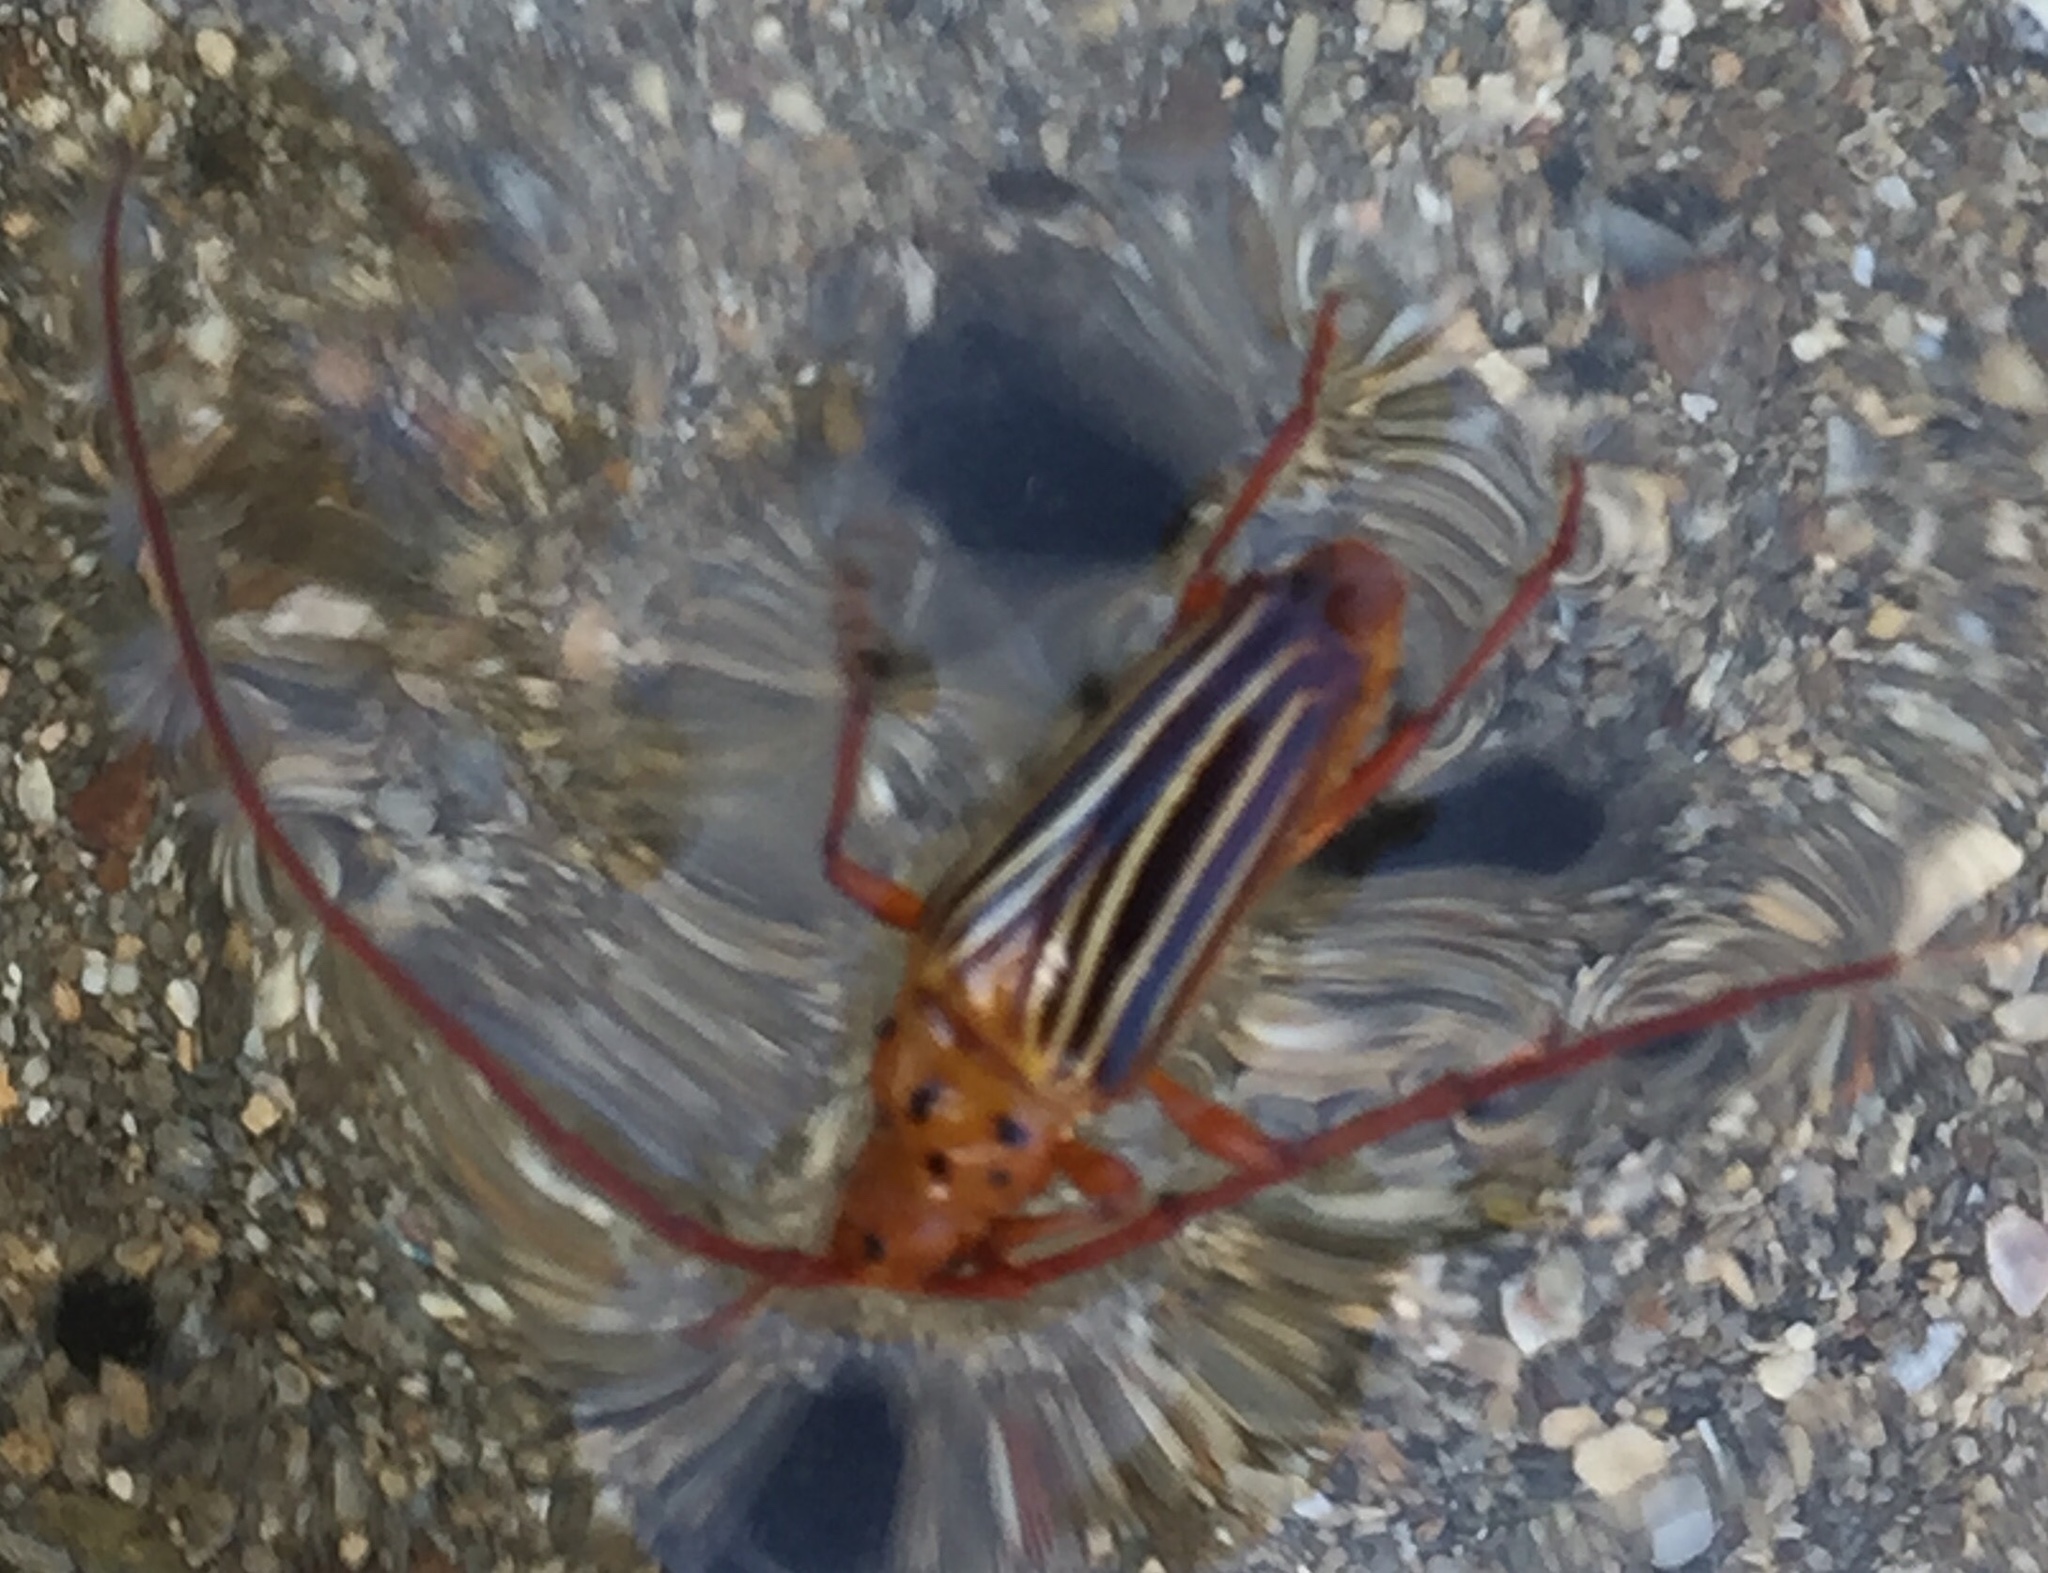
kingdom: Animalia
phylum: Arthropoda
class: Insecta
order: Coleoptera
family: Cerambycidae
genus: Oxymerus
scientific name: Oxymerus aculeatus
